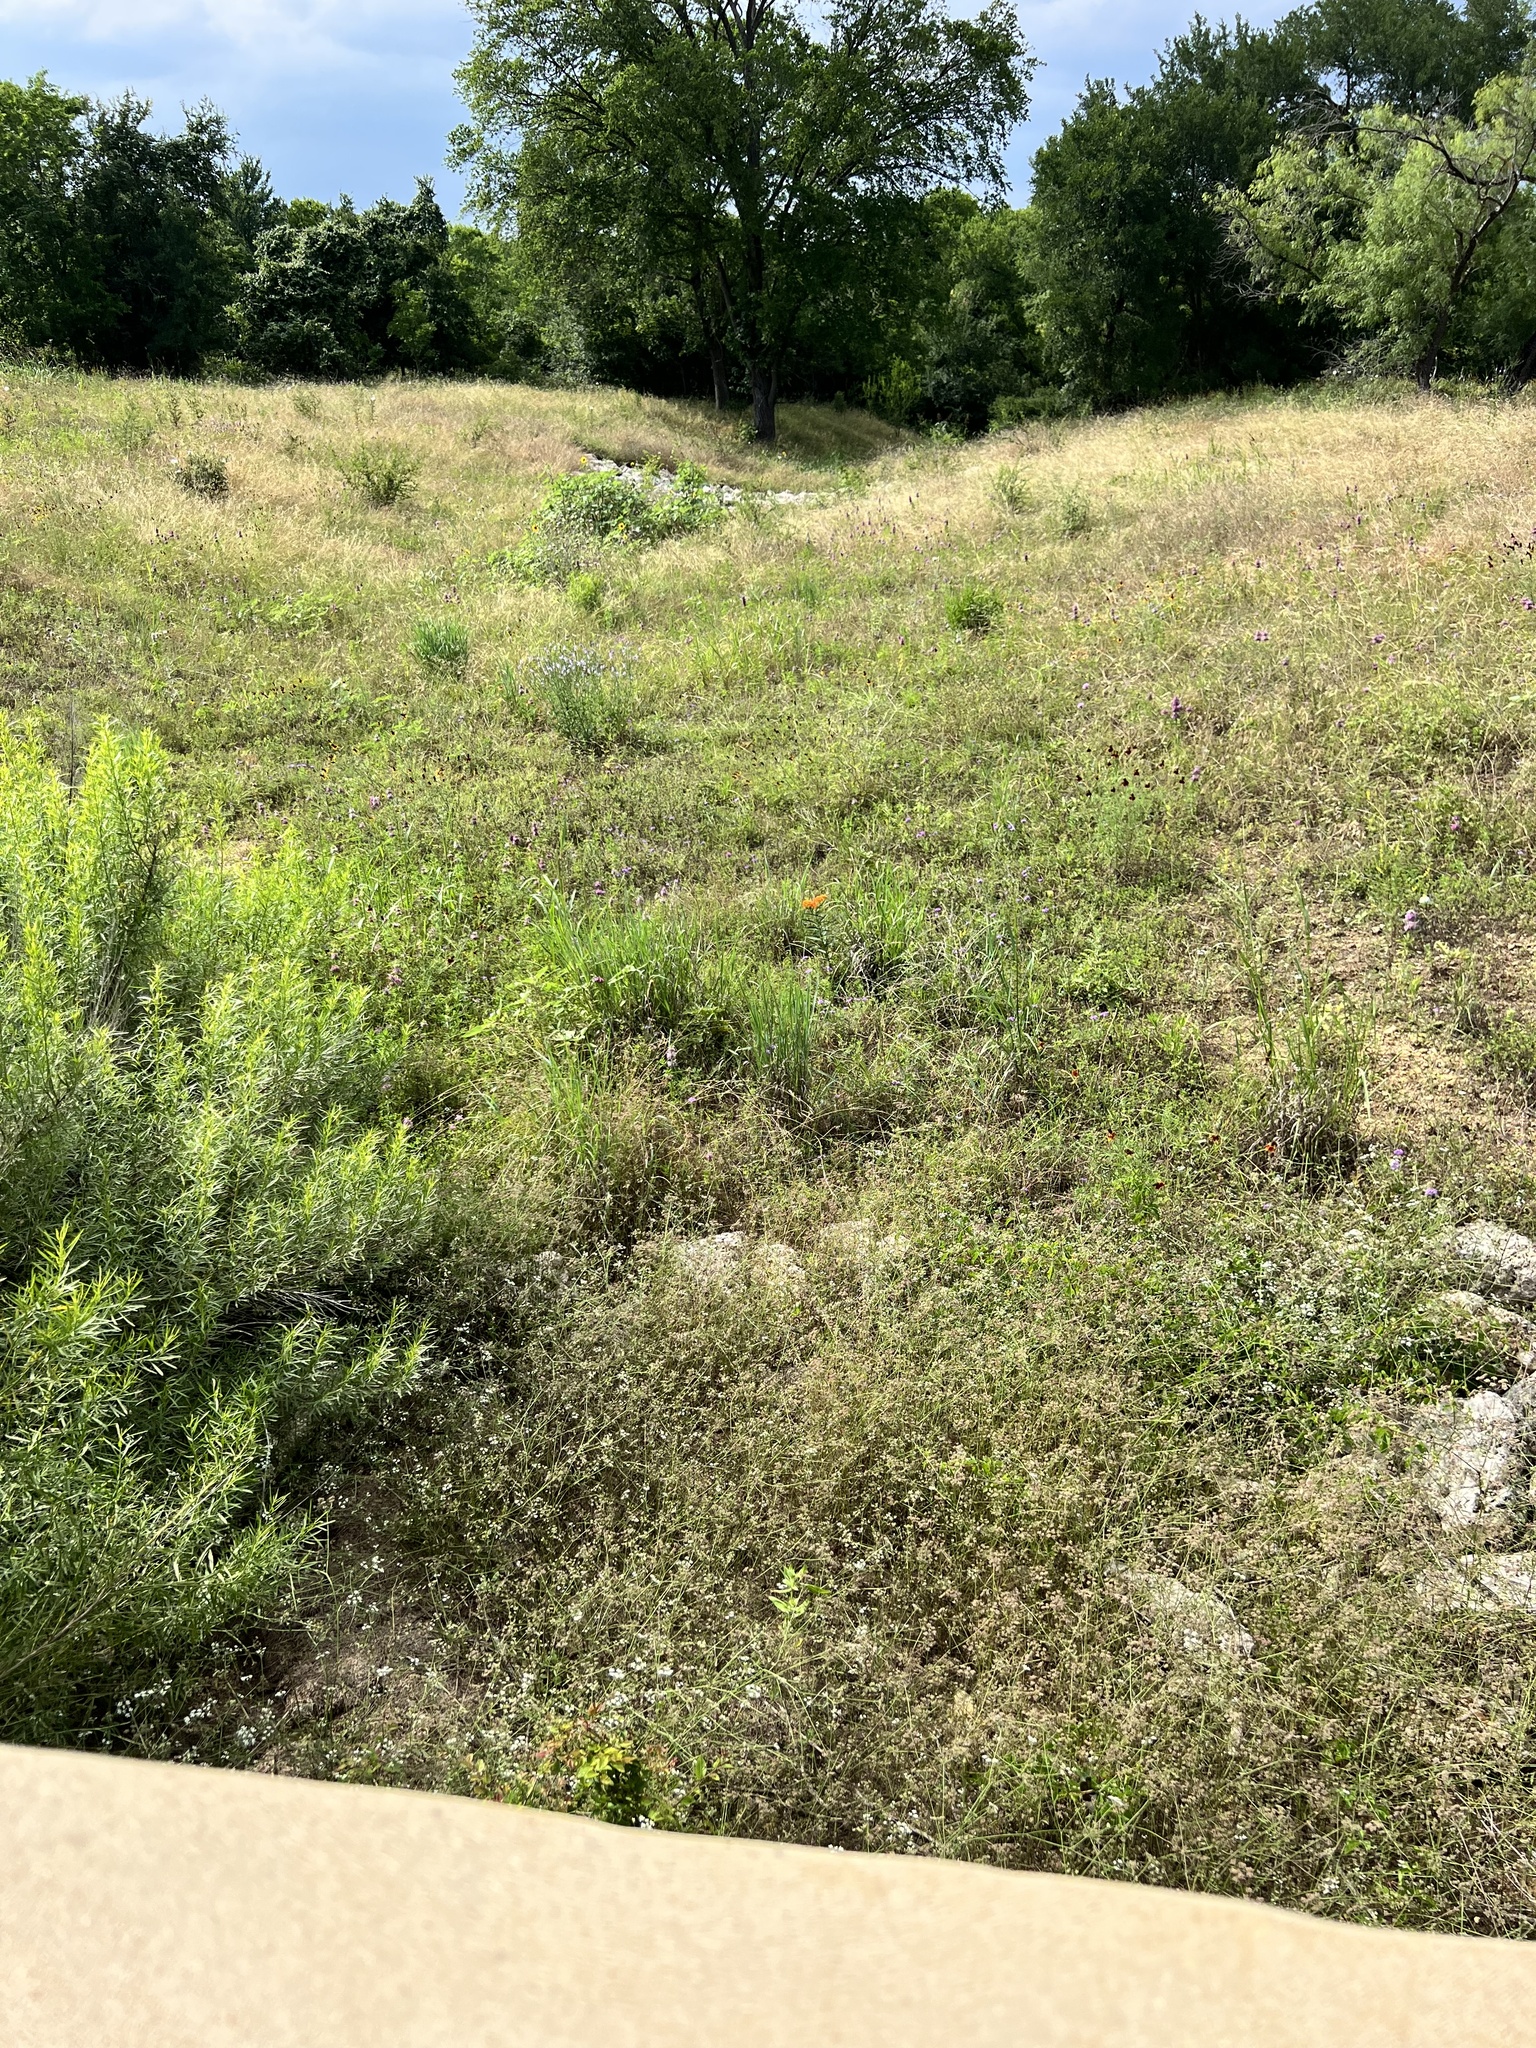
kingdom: Plantae
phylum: Tracheophyta
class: Magnoliopsida
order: Gentianales
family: Apocynaceae
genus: Asclepias
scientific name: Asclepias tuberosa
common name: Butterfly milkweed
